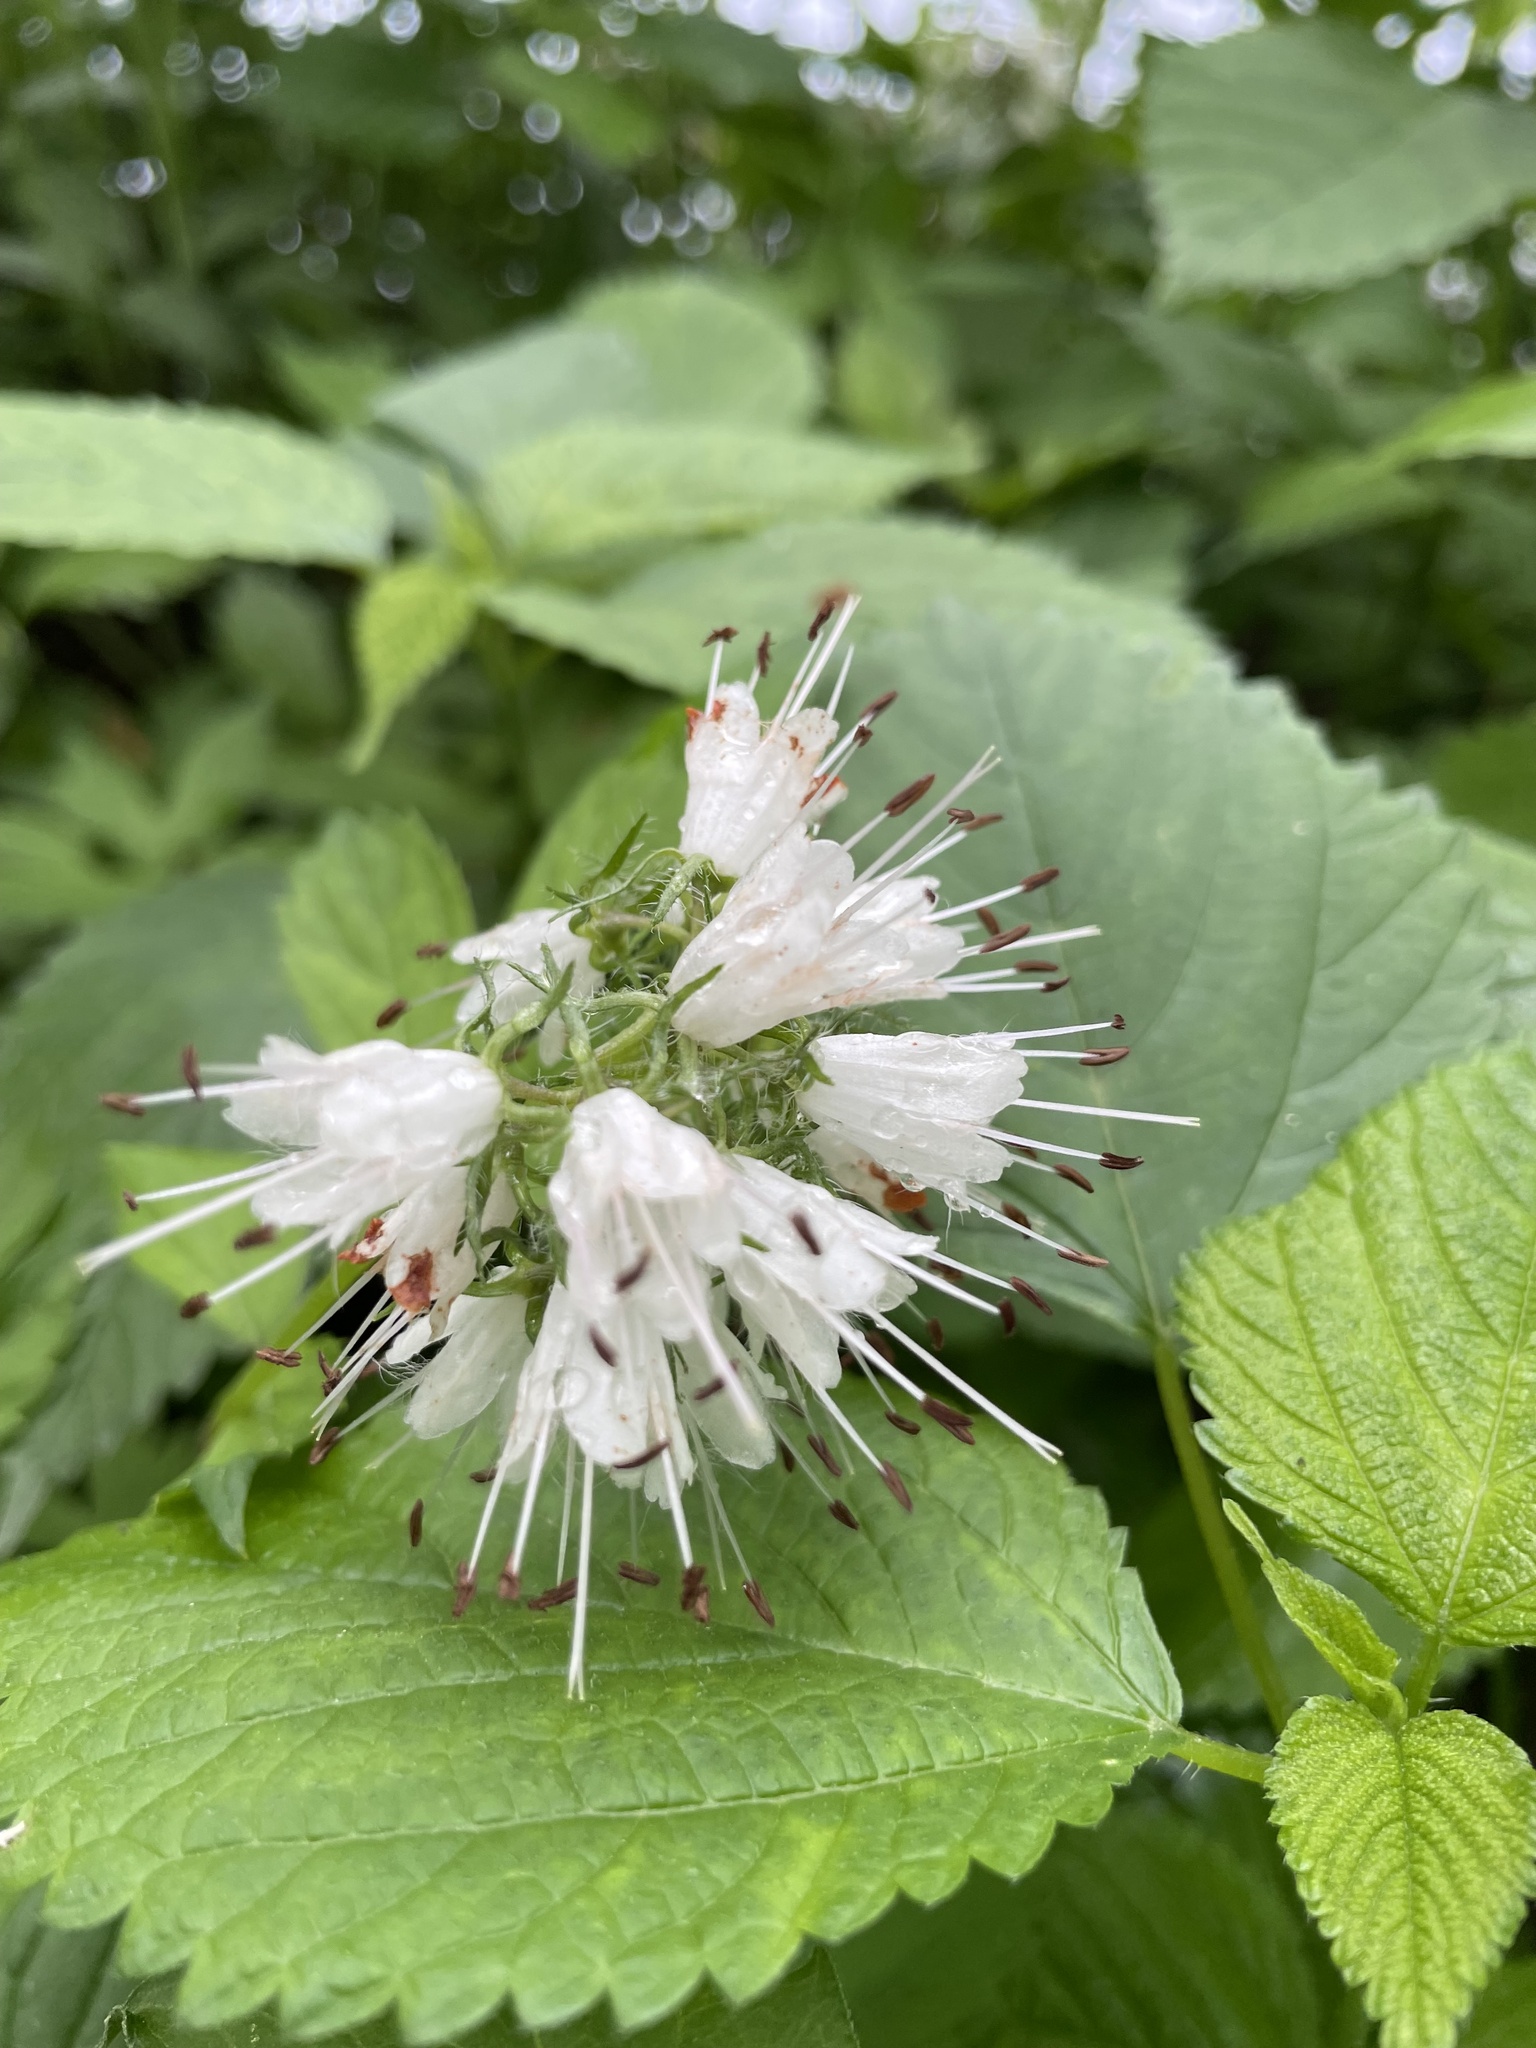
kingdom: Plantae
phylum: Tracheophyta
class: Magnoliopsida
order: Boraginales
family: Hydrophyllaceae
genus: Hydrophyllum
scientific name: Hydrophyllum virginianum
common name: Virginia waterleaf
